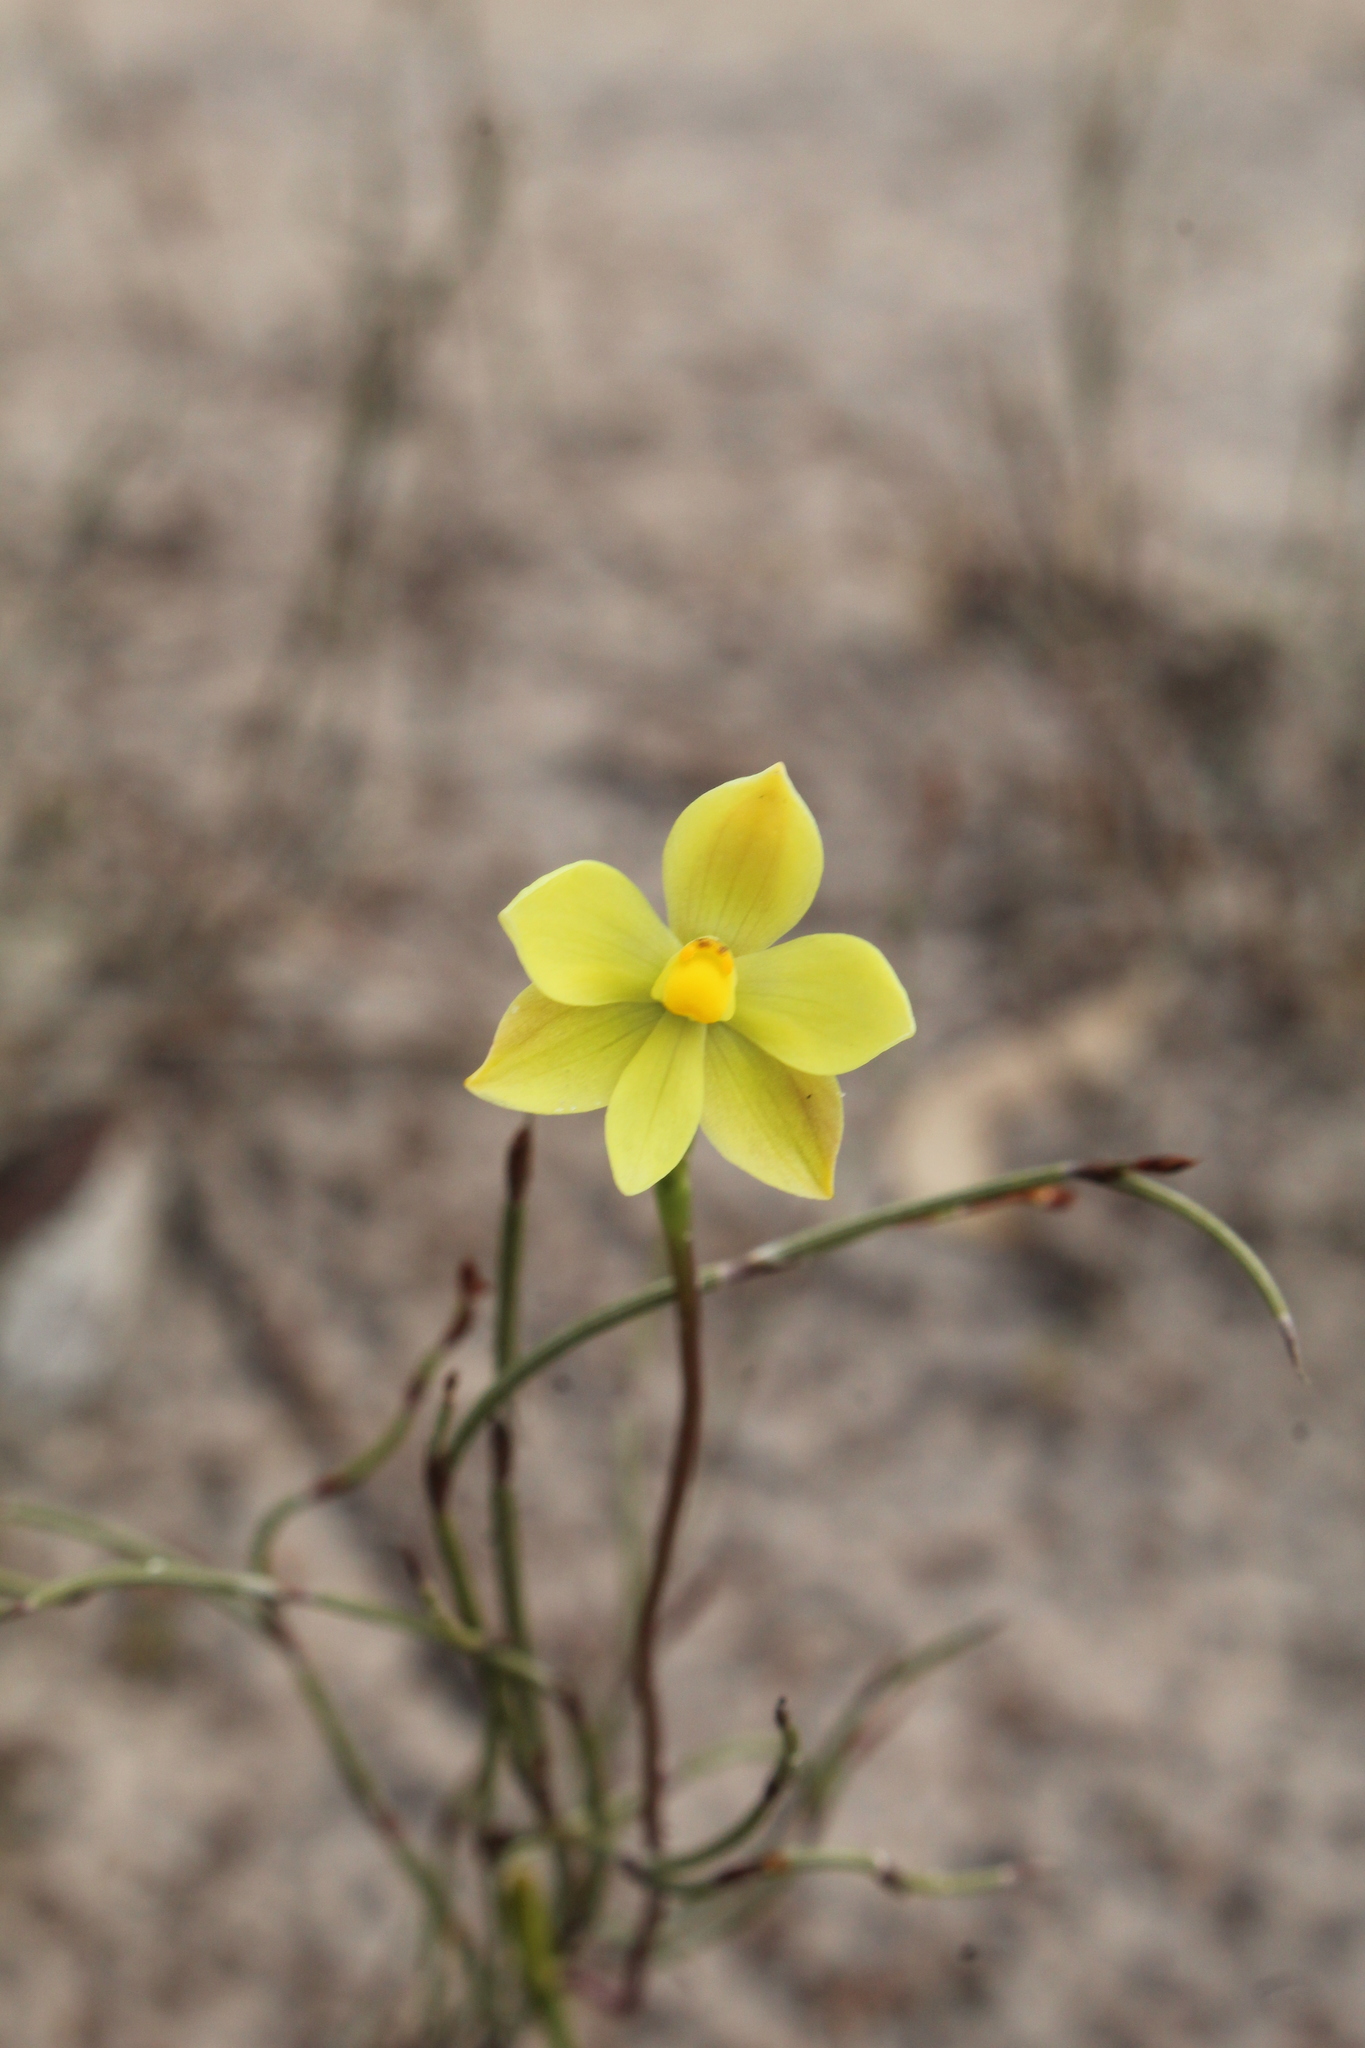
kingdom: Plantae
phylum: Tracheophyta
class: Liliopsida
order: Asparagales
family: Orchidaceae
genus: Thelymitra
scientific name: Thelymitra flexuosa
